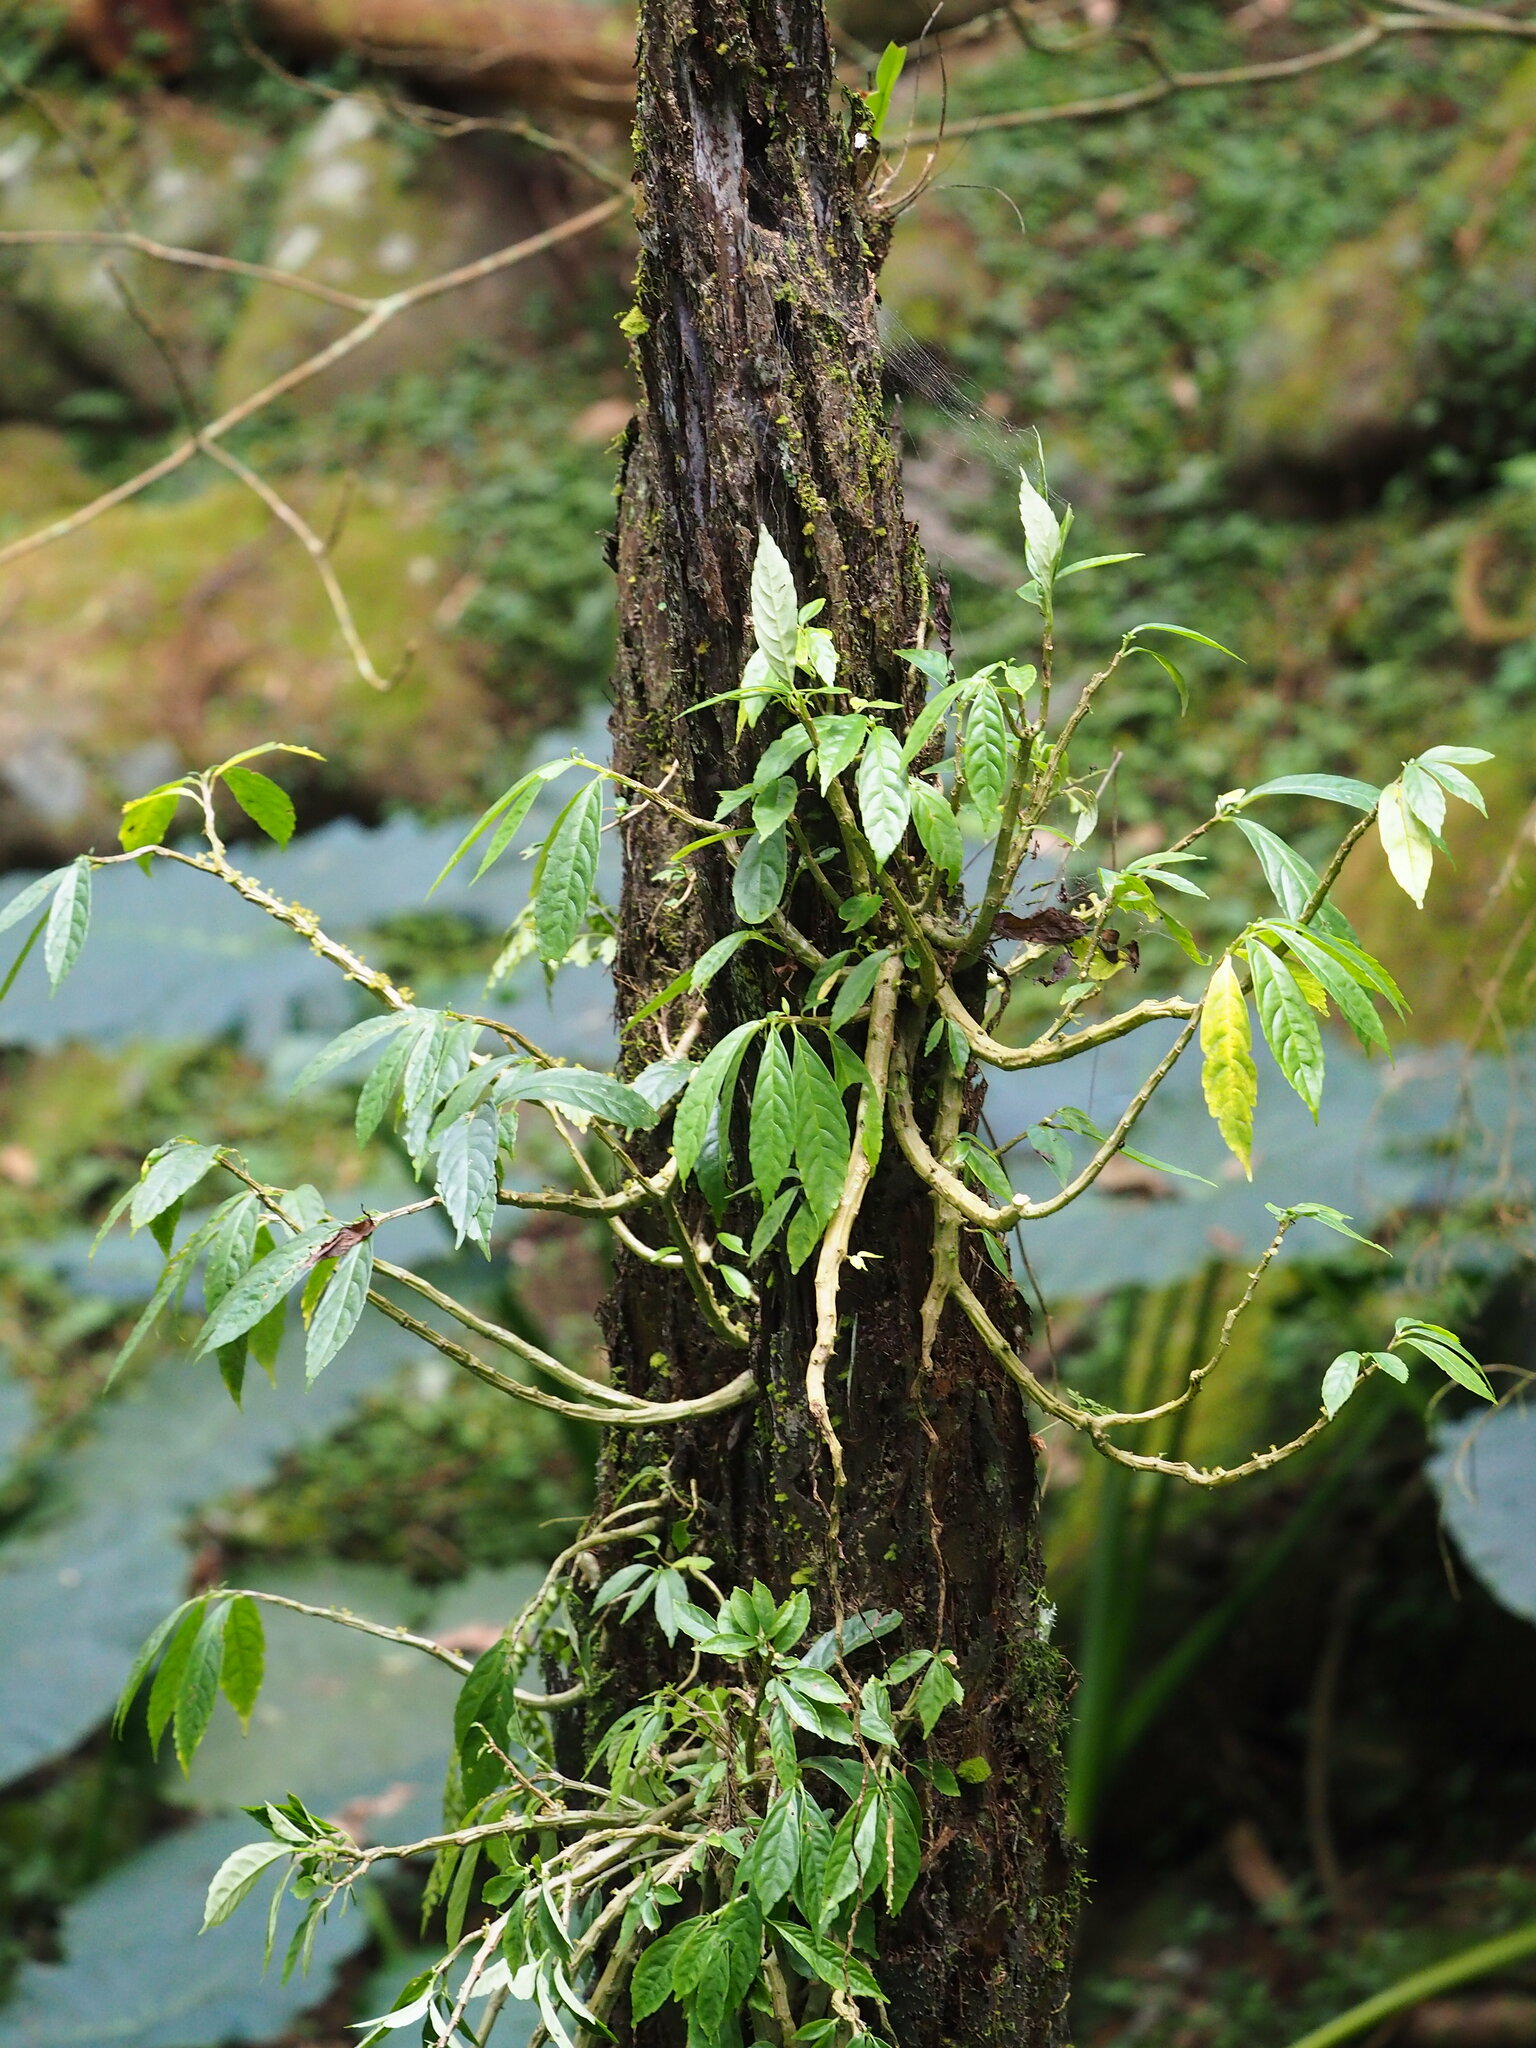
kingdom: Plantae
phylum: Tracheophyta
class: Magnoliopsida
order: Rosales
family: Urticaceae
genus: Procris
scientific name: Procris
